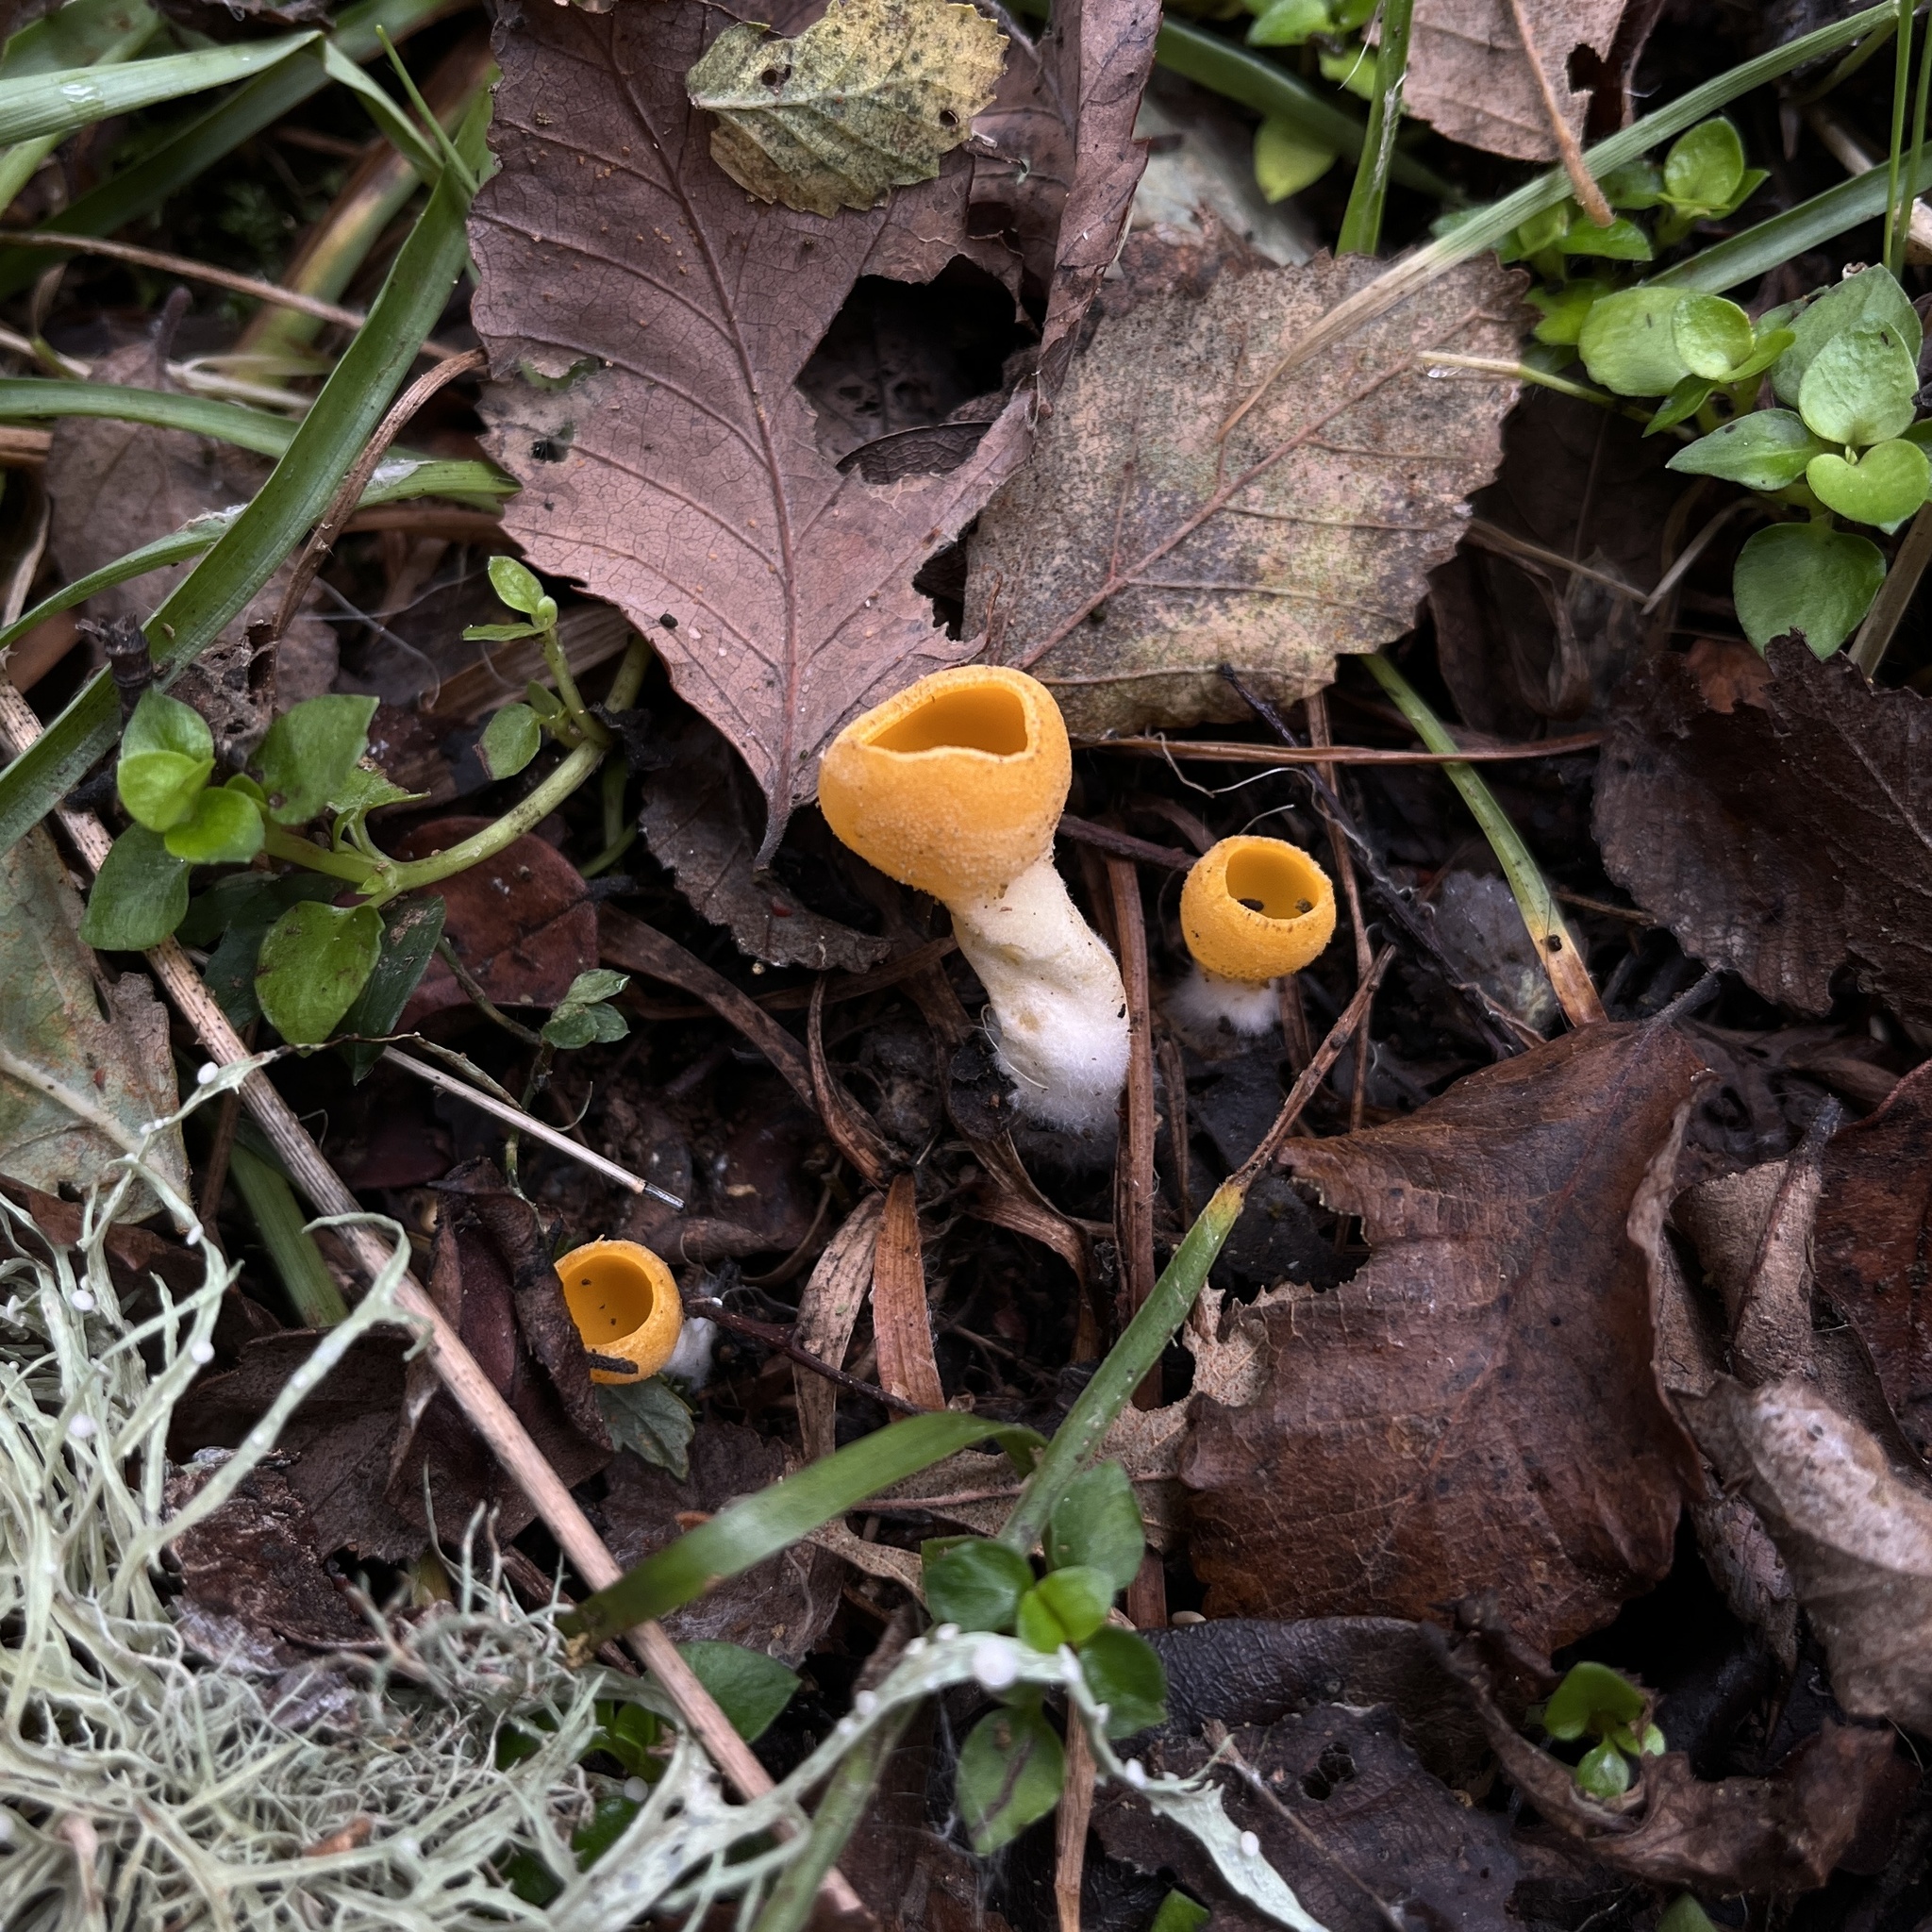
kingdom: Fungi
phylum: Ascomycota
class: Pezizomycetes
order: Pezizales
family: Pyronemataceae
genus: Sowerbyella
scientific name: Sowerbyella rhenana
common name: Stalked orange peel fungus
